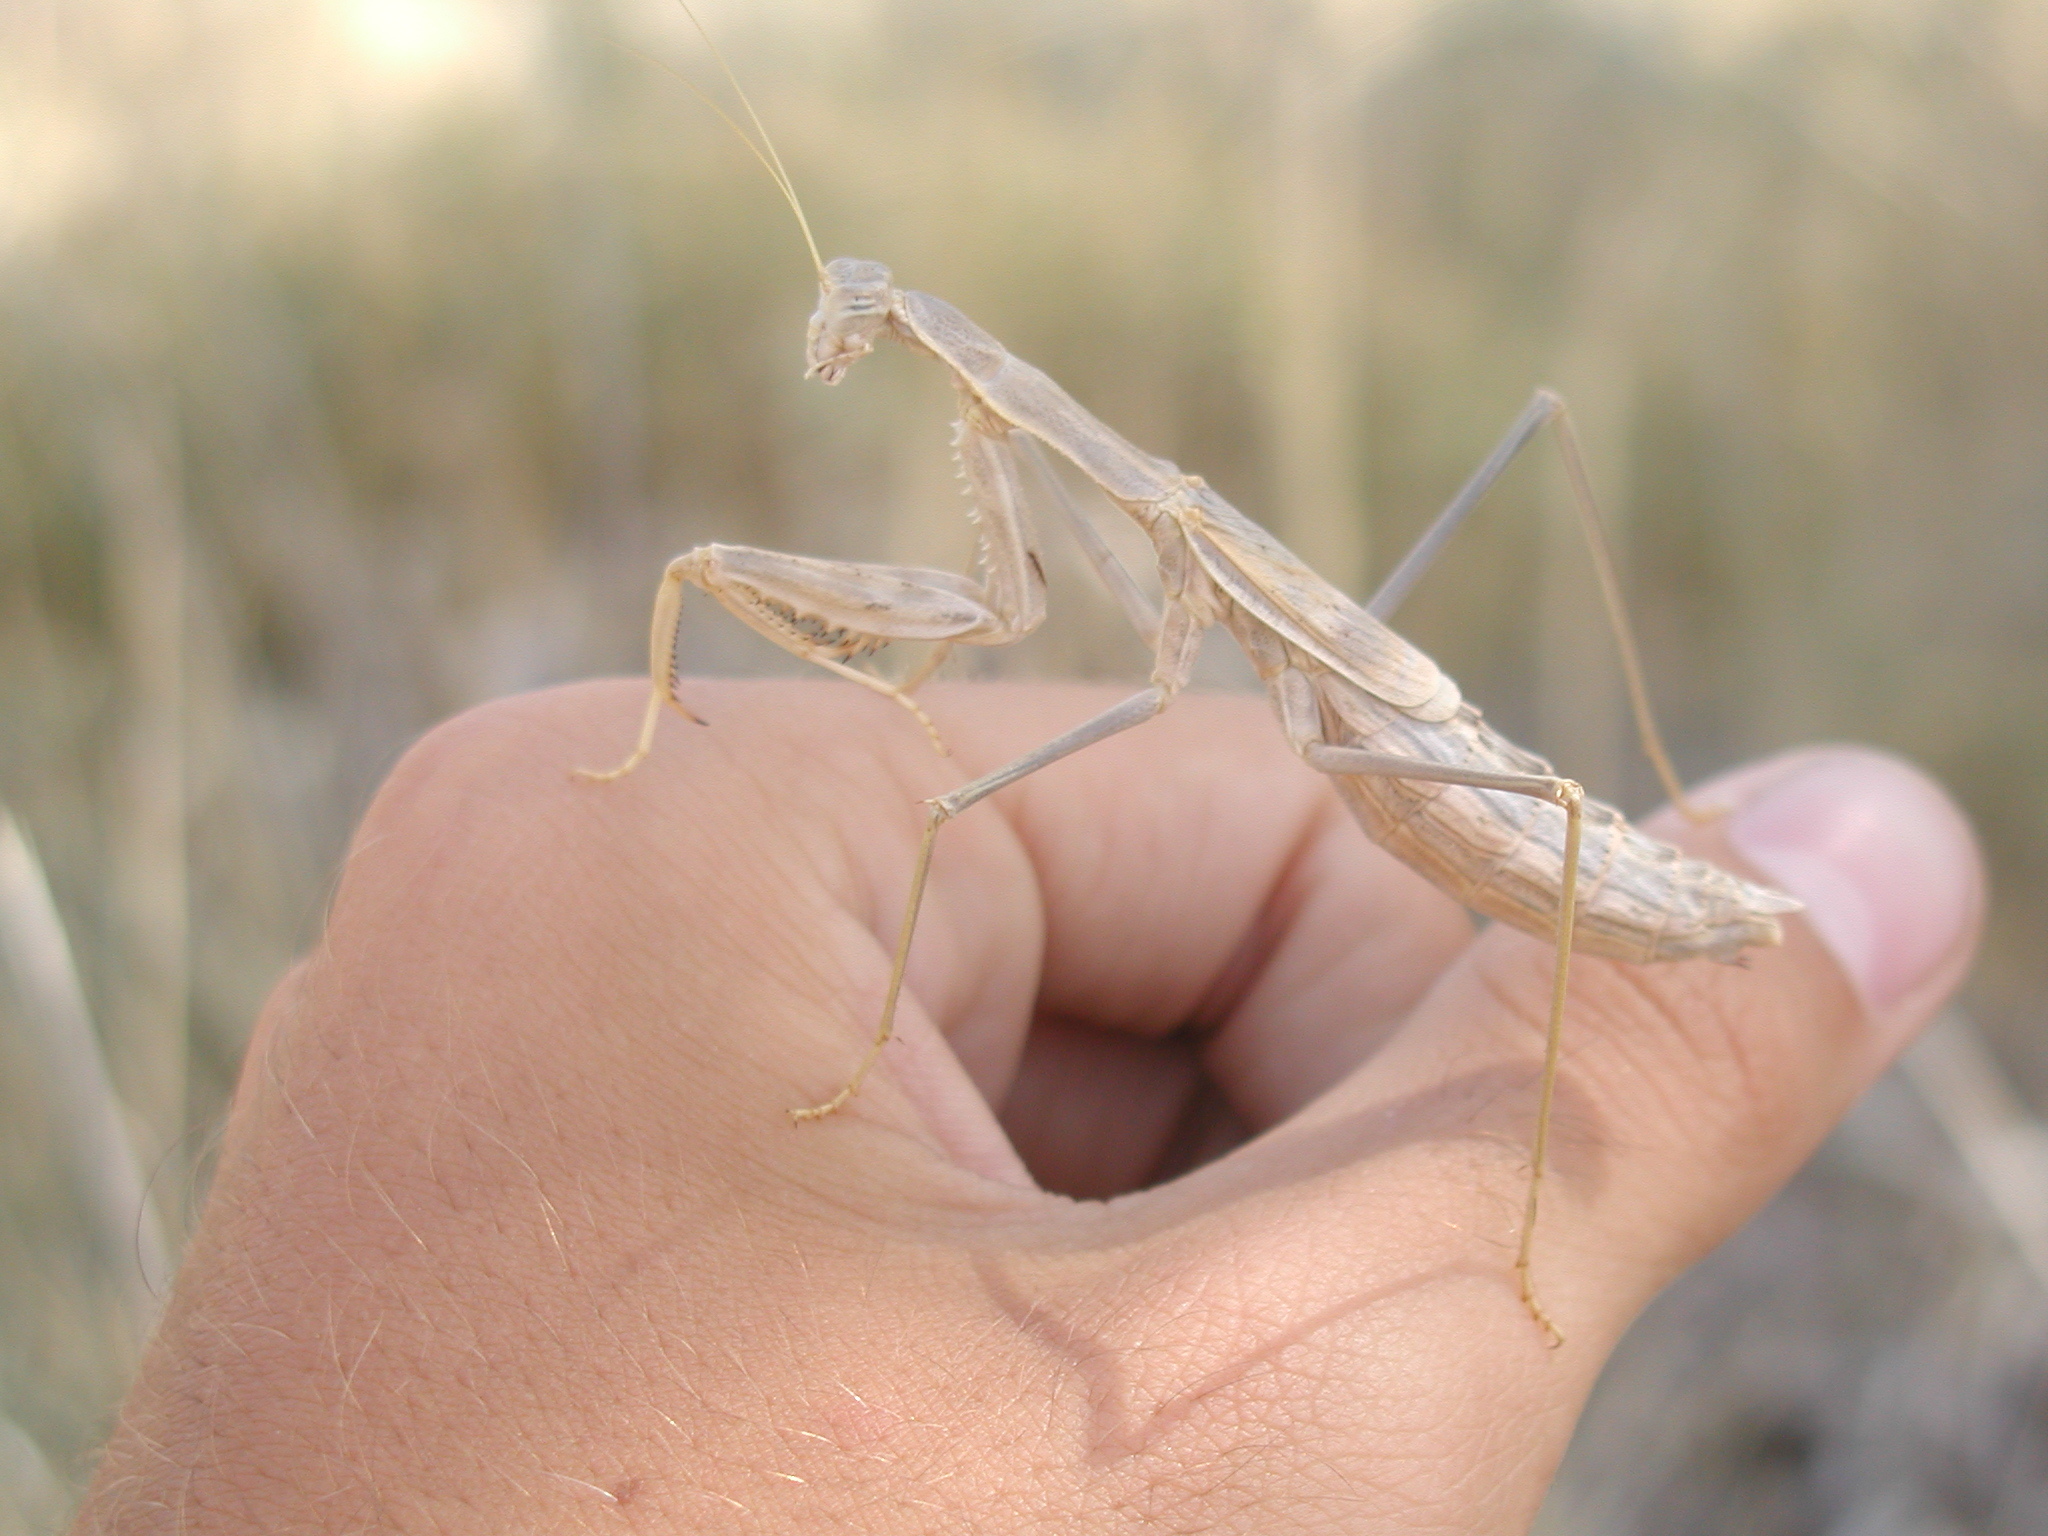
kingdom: Animalia
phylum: Arthropoda
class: Insecta
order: Mantodea
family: Rivetinidae
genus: Rivetina
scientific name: Rivetina balcanica
